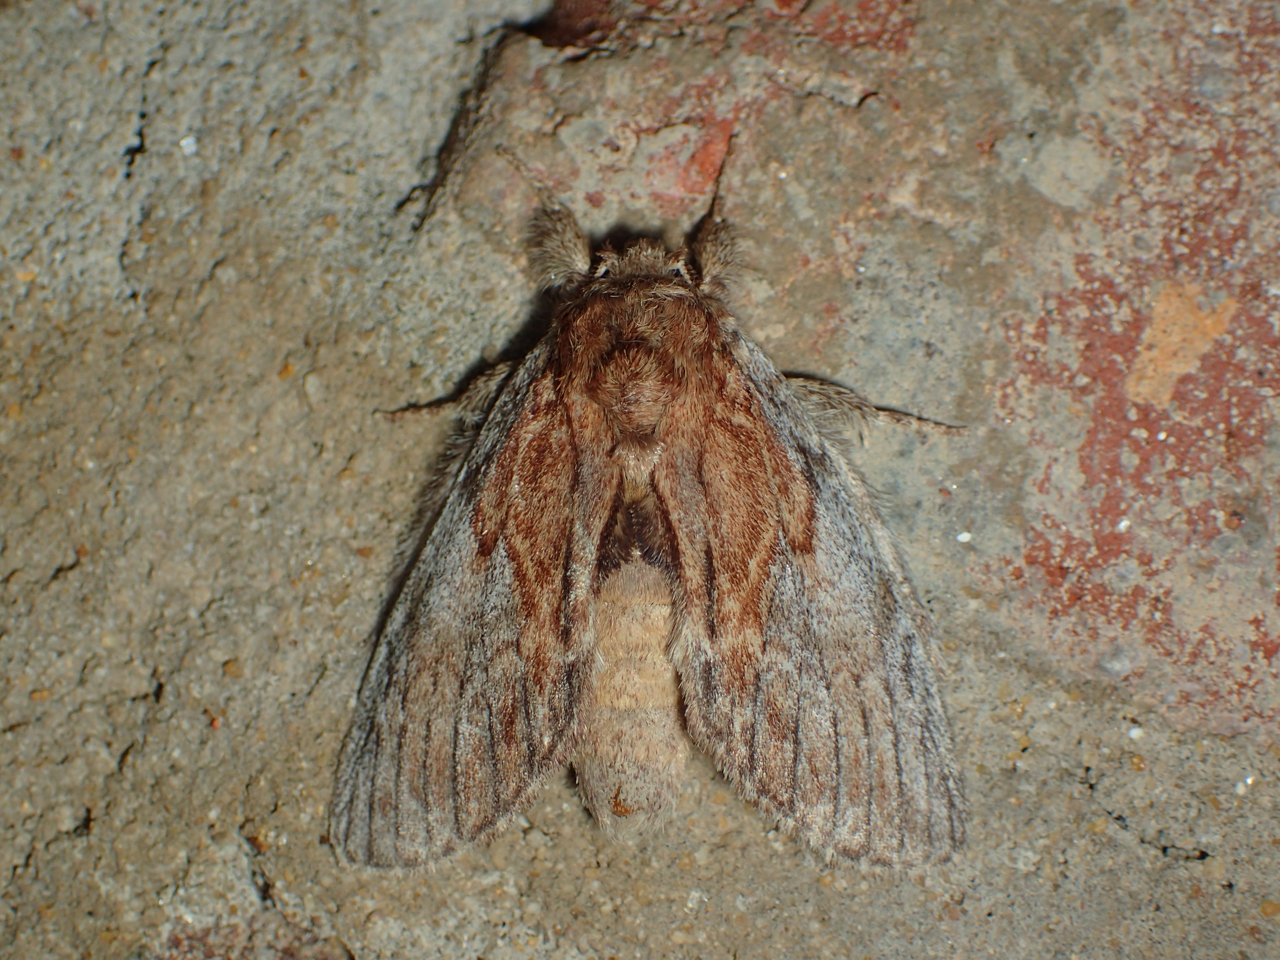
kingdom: Animalia
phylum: Arthropoda
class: Insecta
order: Lepidoptera
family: Notodontidae
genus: Peridea
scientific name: Peridea basitriens
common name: Oval-based prominent
